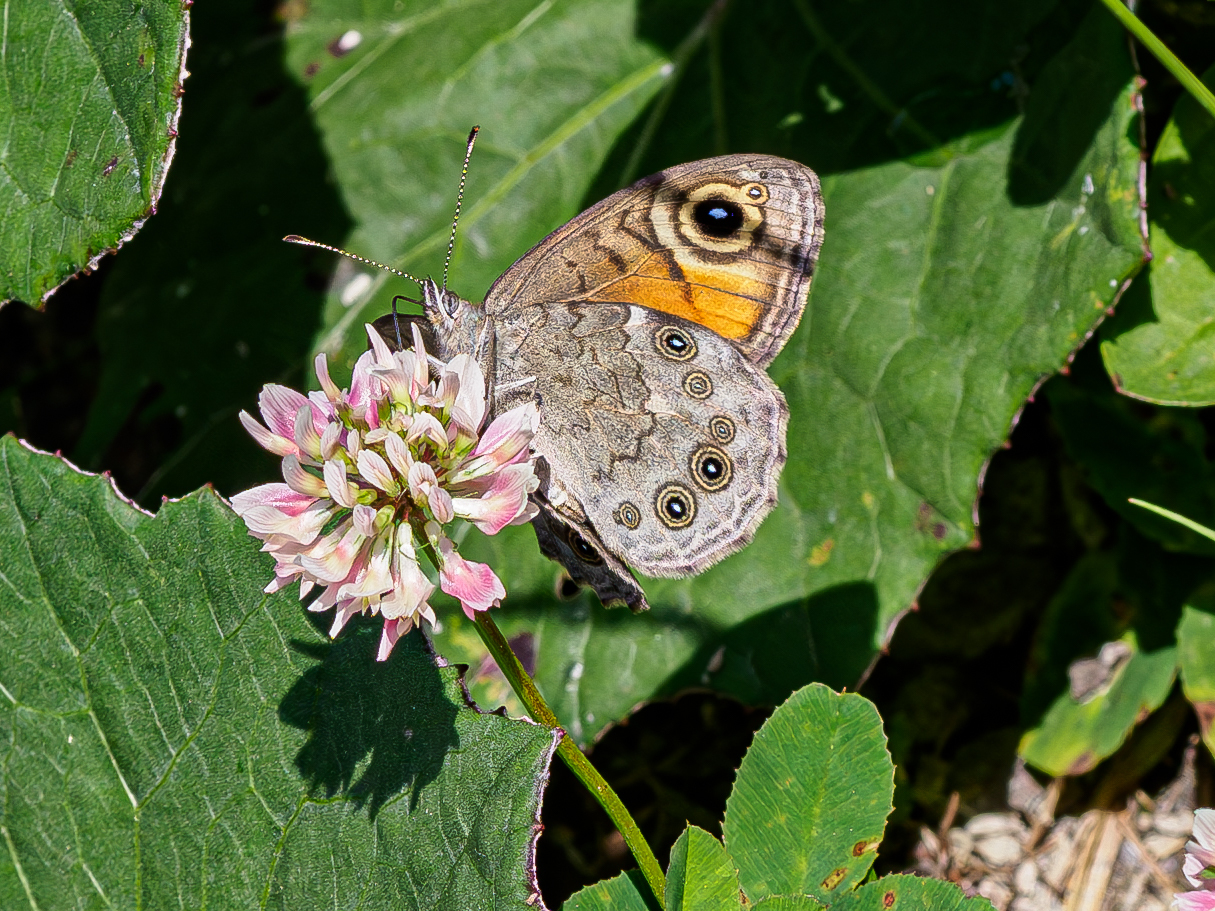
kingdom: Animalia
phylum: Arthropoda
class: Insecta
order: Lepidoptera
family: Nymphalidae
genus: Pararge
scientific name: Pararge Lasiommata maera
